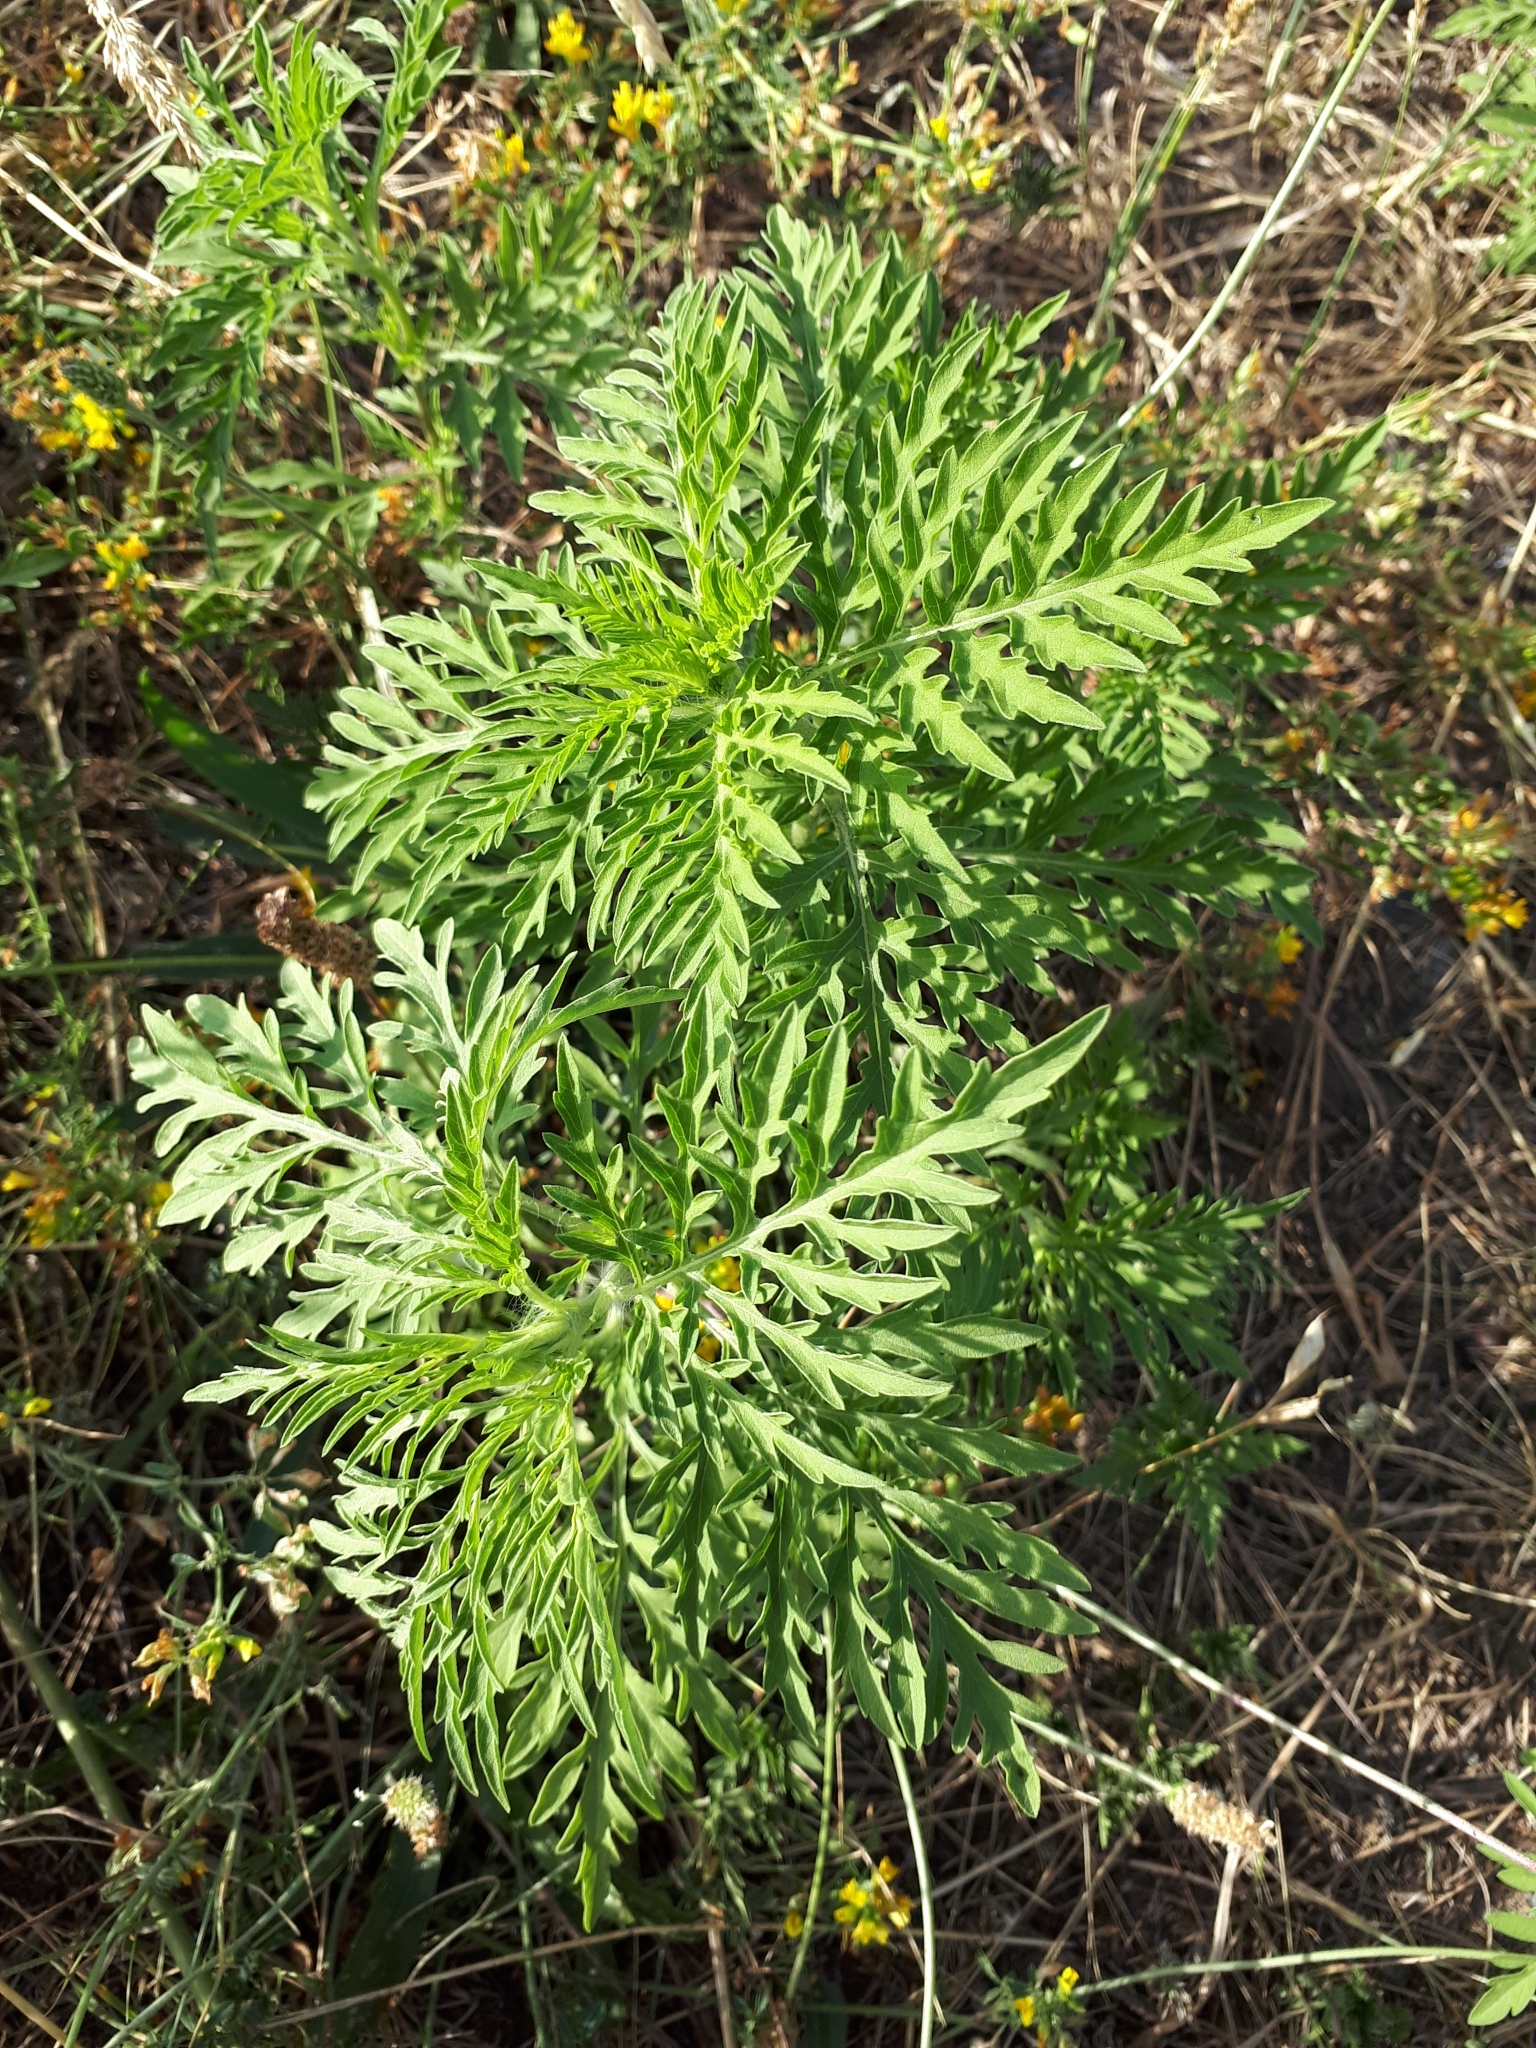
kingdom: Plantae
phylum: Tracheophyta
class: Magnoliopsida
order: Asterales
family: Asteraceae
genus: Ambrosia
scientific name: Ambrosia artemisiifolia
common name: Annual ragweed
